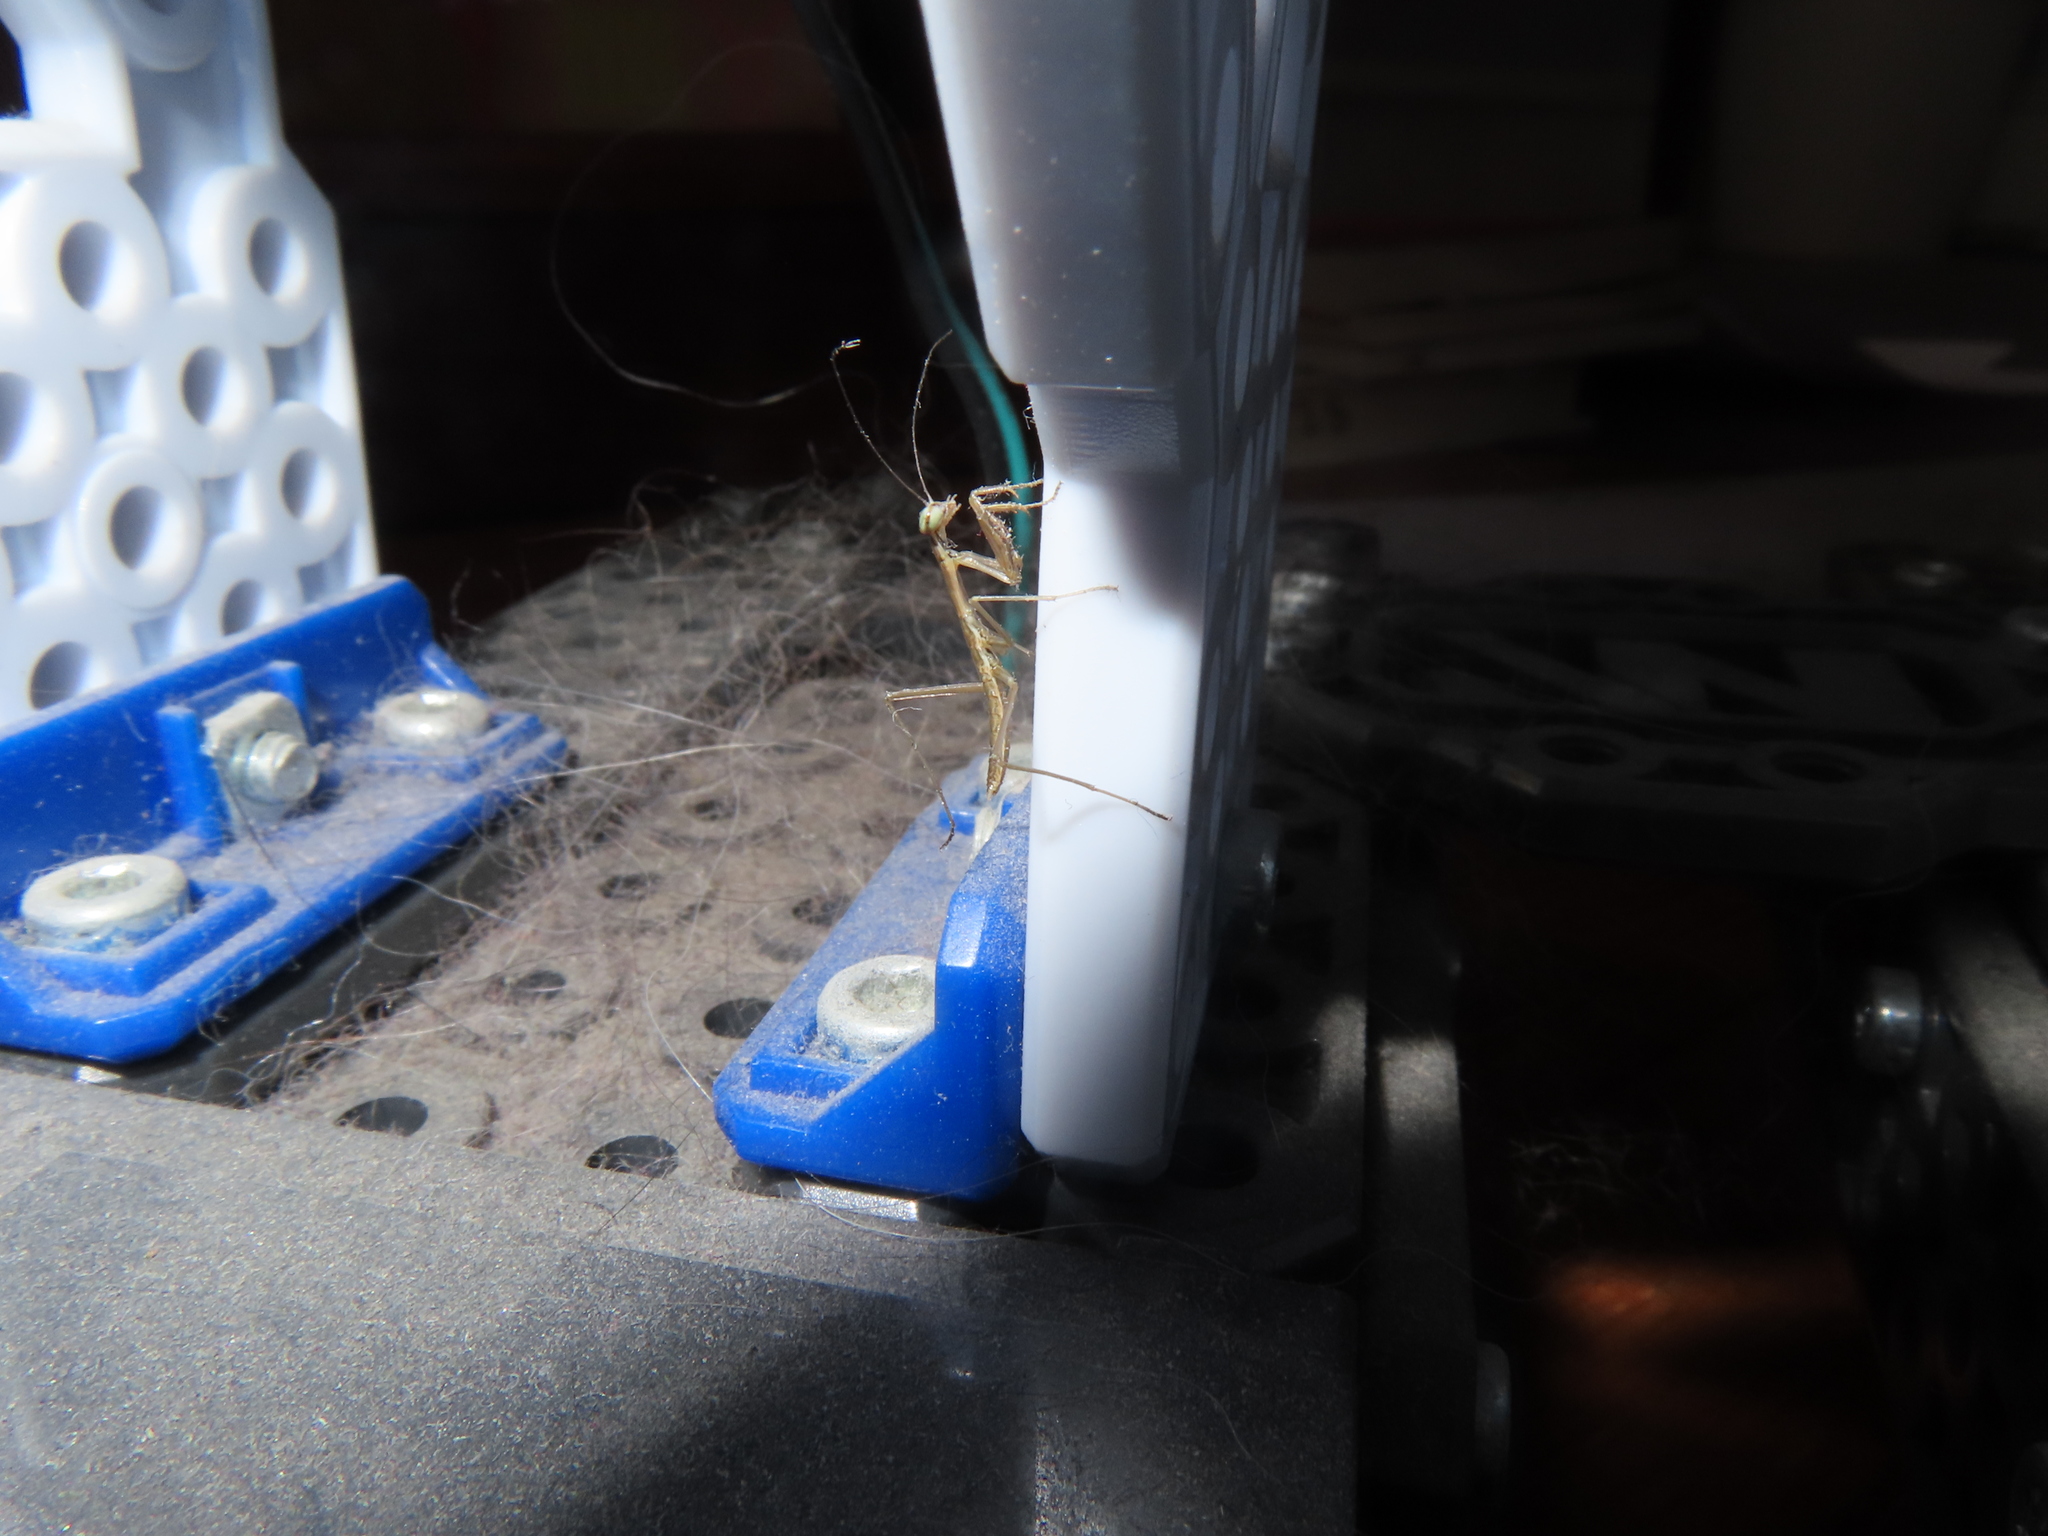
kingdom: Animalia
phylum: Arthropoda
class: Insecta
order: Mantodea
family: Mantidae
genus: Tenodera
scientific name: Tenodera sinensis
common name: Chinese mantis
